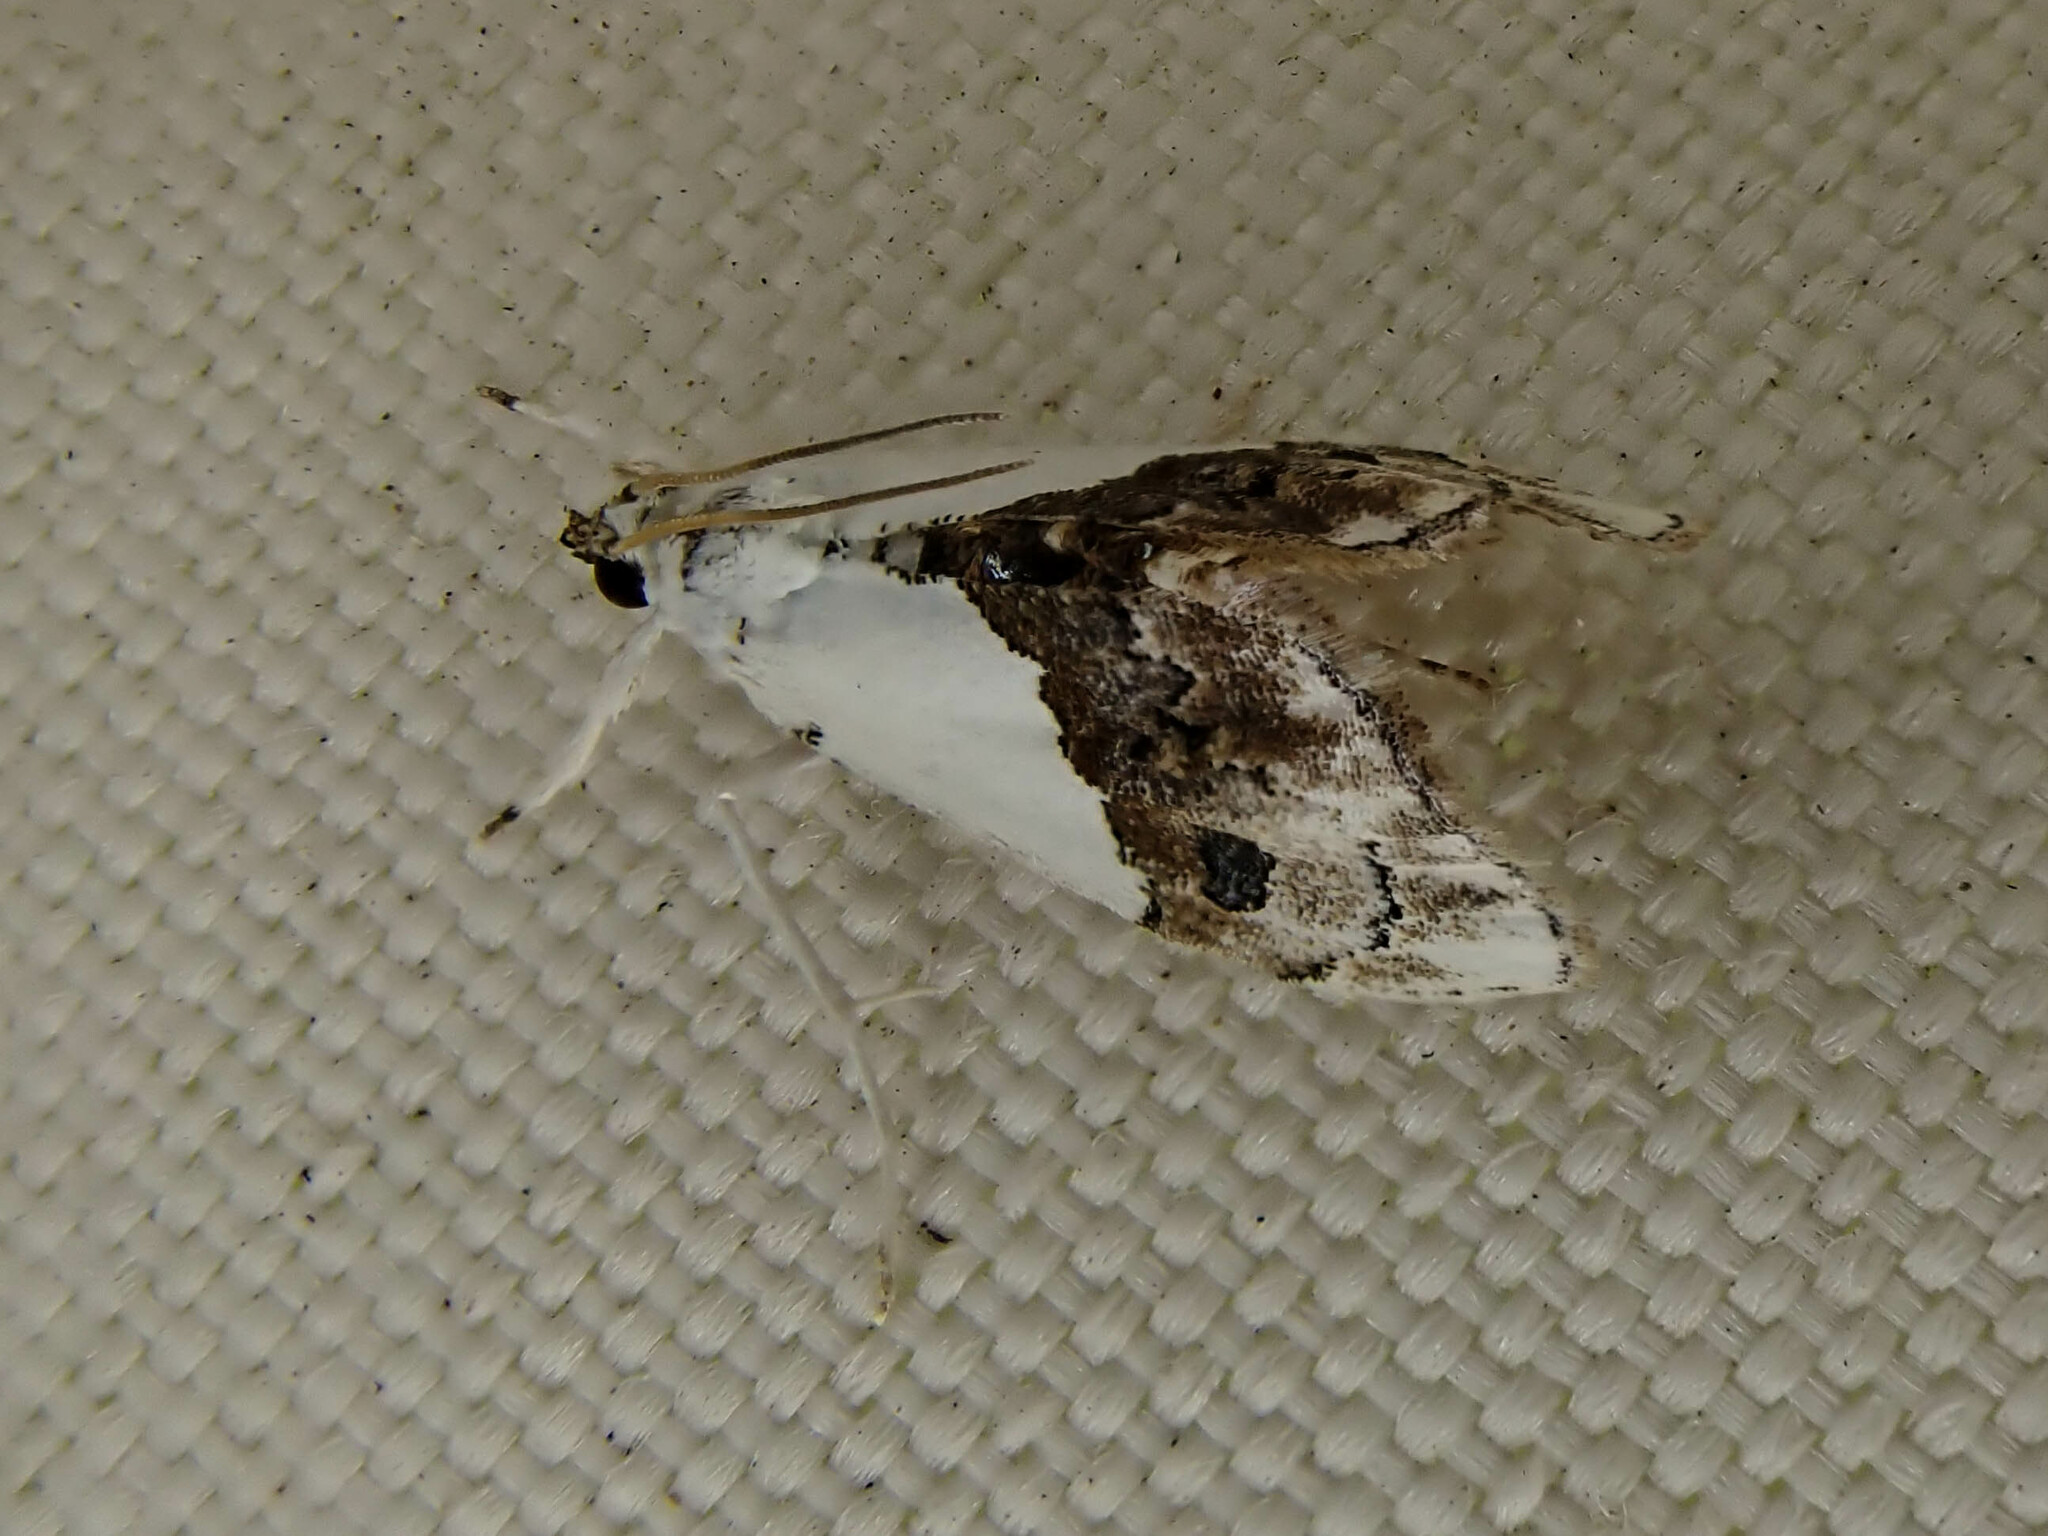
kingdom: Animalia
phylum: Arthropoda
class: Insecta
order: Lepidoptera
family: Crambidae
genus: Lipocosma
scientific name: Lipocosma albinibasalis
